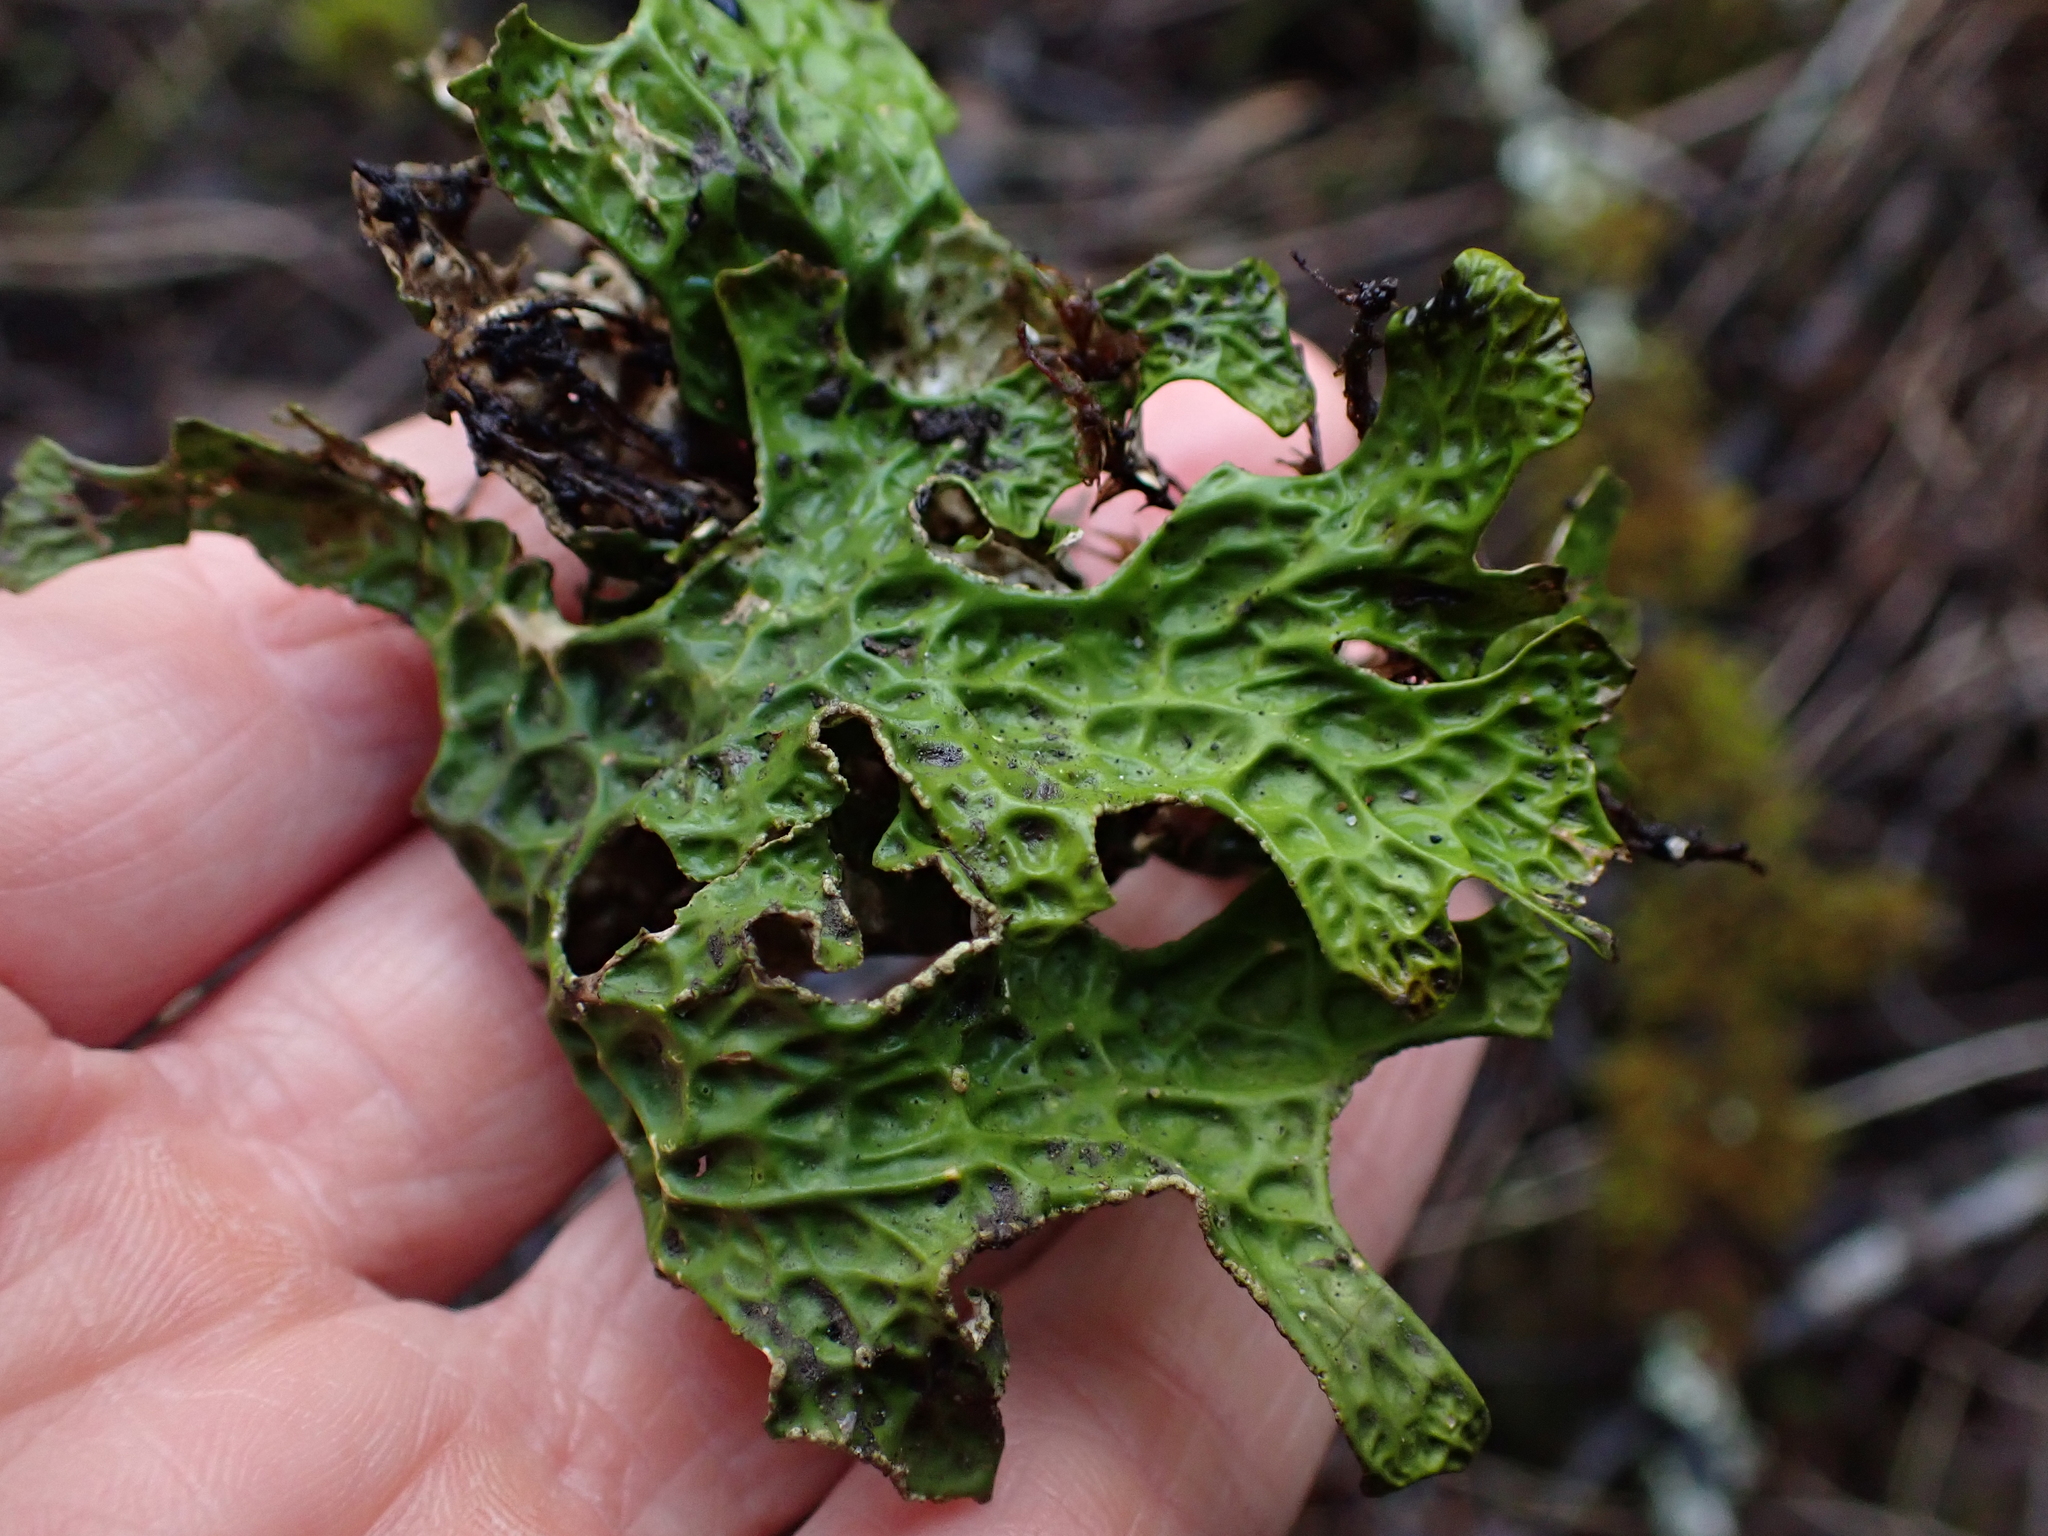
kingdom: Fungi
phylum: Ascomycota
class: Lecanoromycetes
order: Peltigerales
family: Lobariaceae
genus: Lobaria
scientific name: Lobaria pulmonaria
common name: Lungwort
